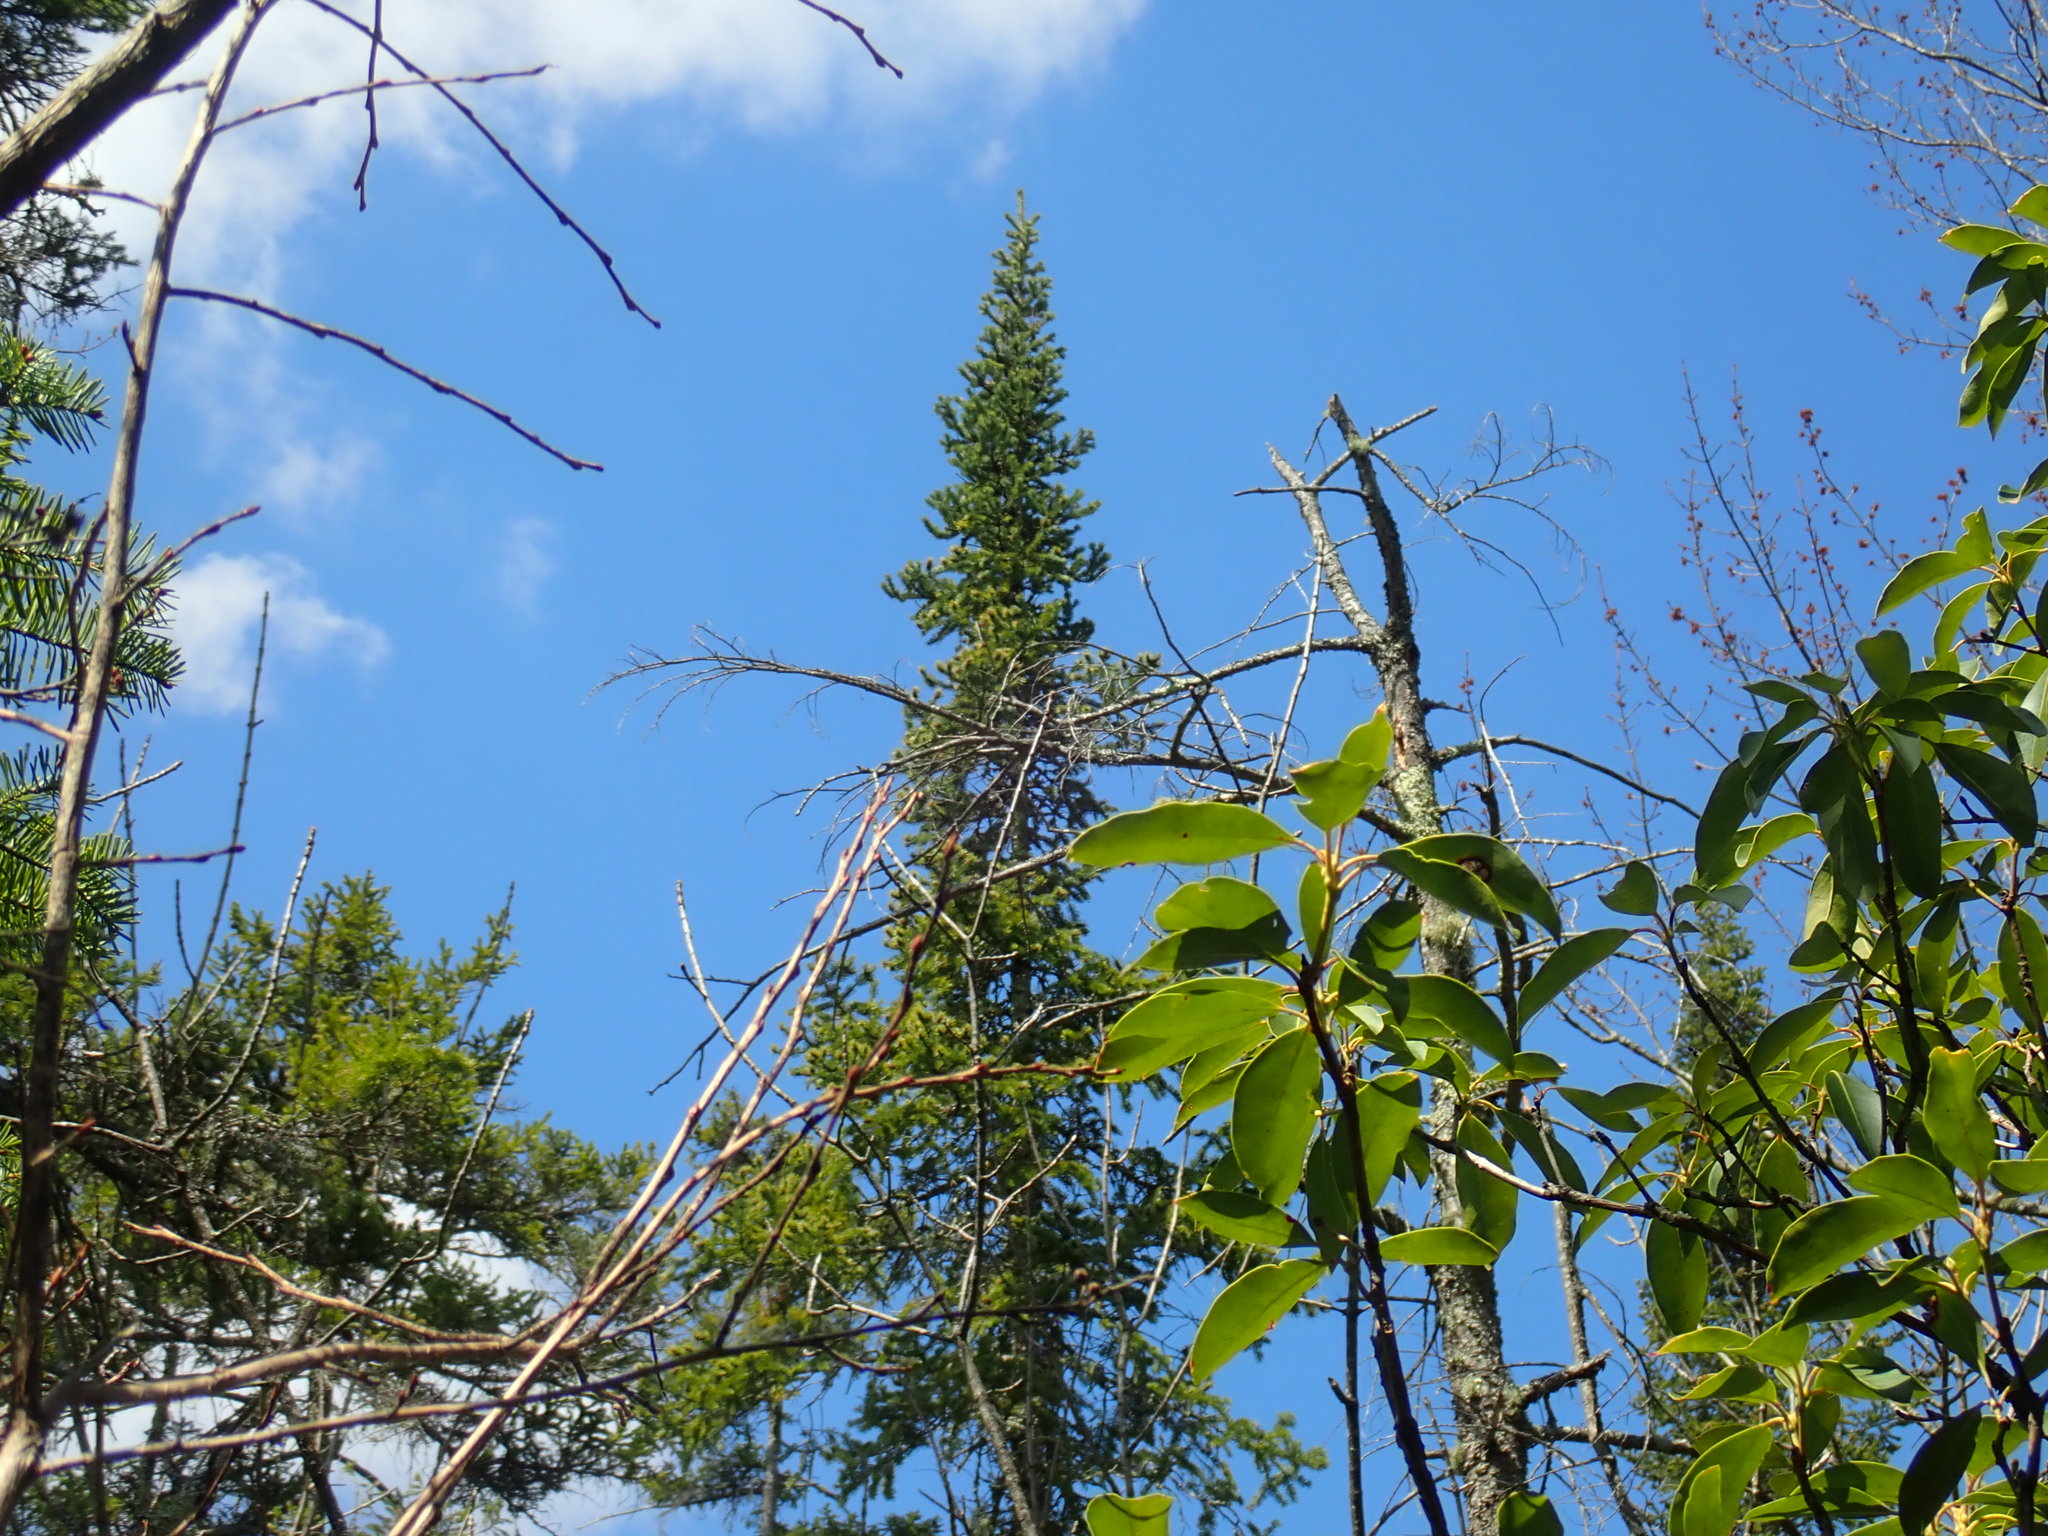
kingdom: Plantae
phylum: Tracheophyta
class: Pinopsida
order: Pinales
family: Pinaceae
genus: Abies
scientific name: Abies balsamea
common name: Balsam fir
